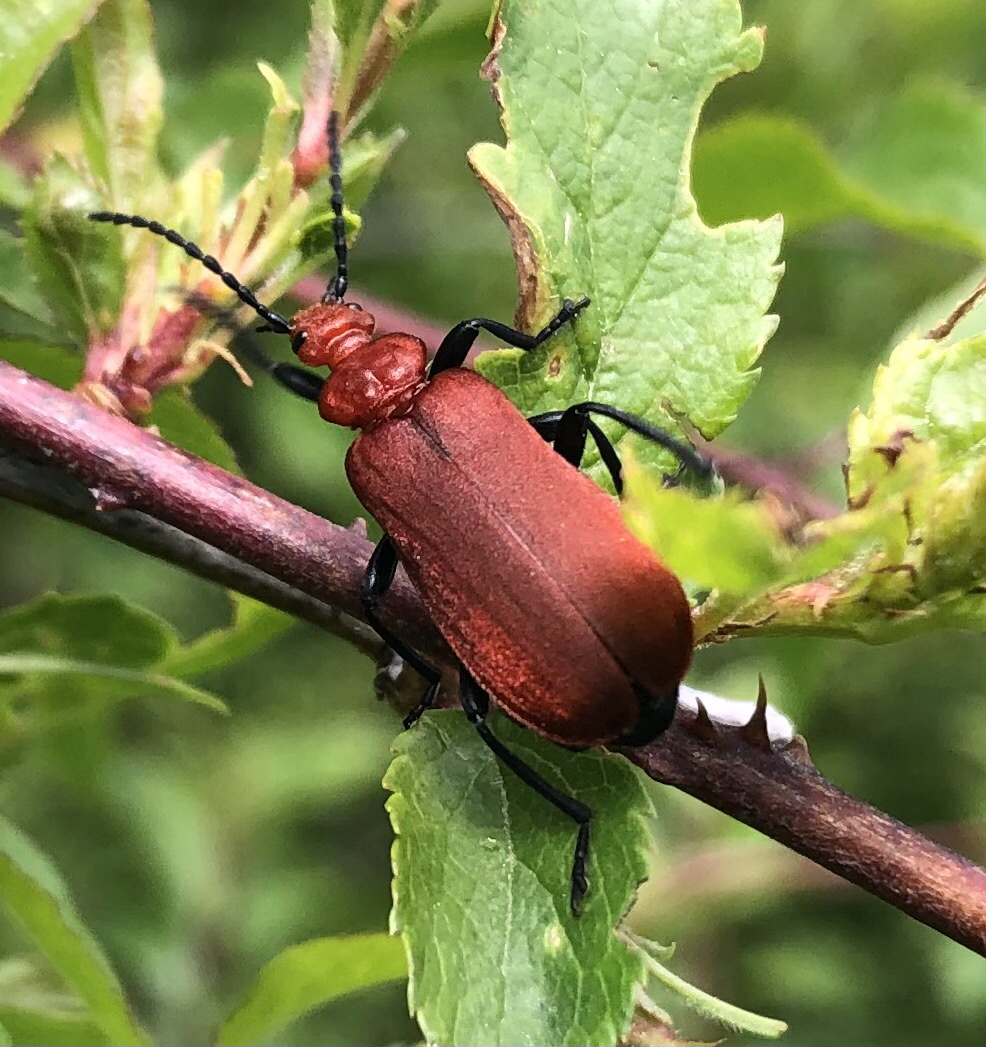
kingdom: Animalia
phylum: Arthropoda
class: Insecta
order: Coleoptera
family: Pyrochroidae
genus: Pyrochroa
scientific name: Pyrochroa serraticornis
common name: Red-headed cardinal beetle
